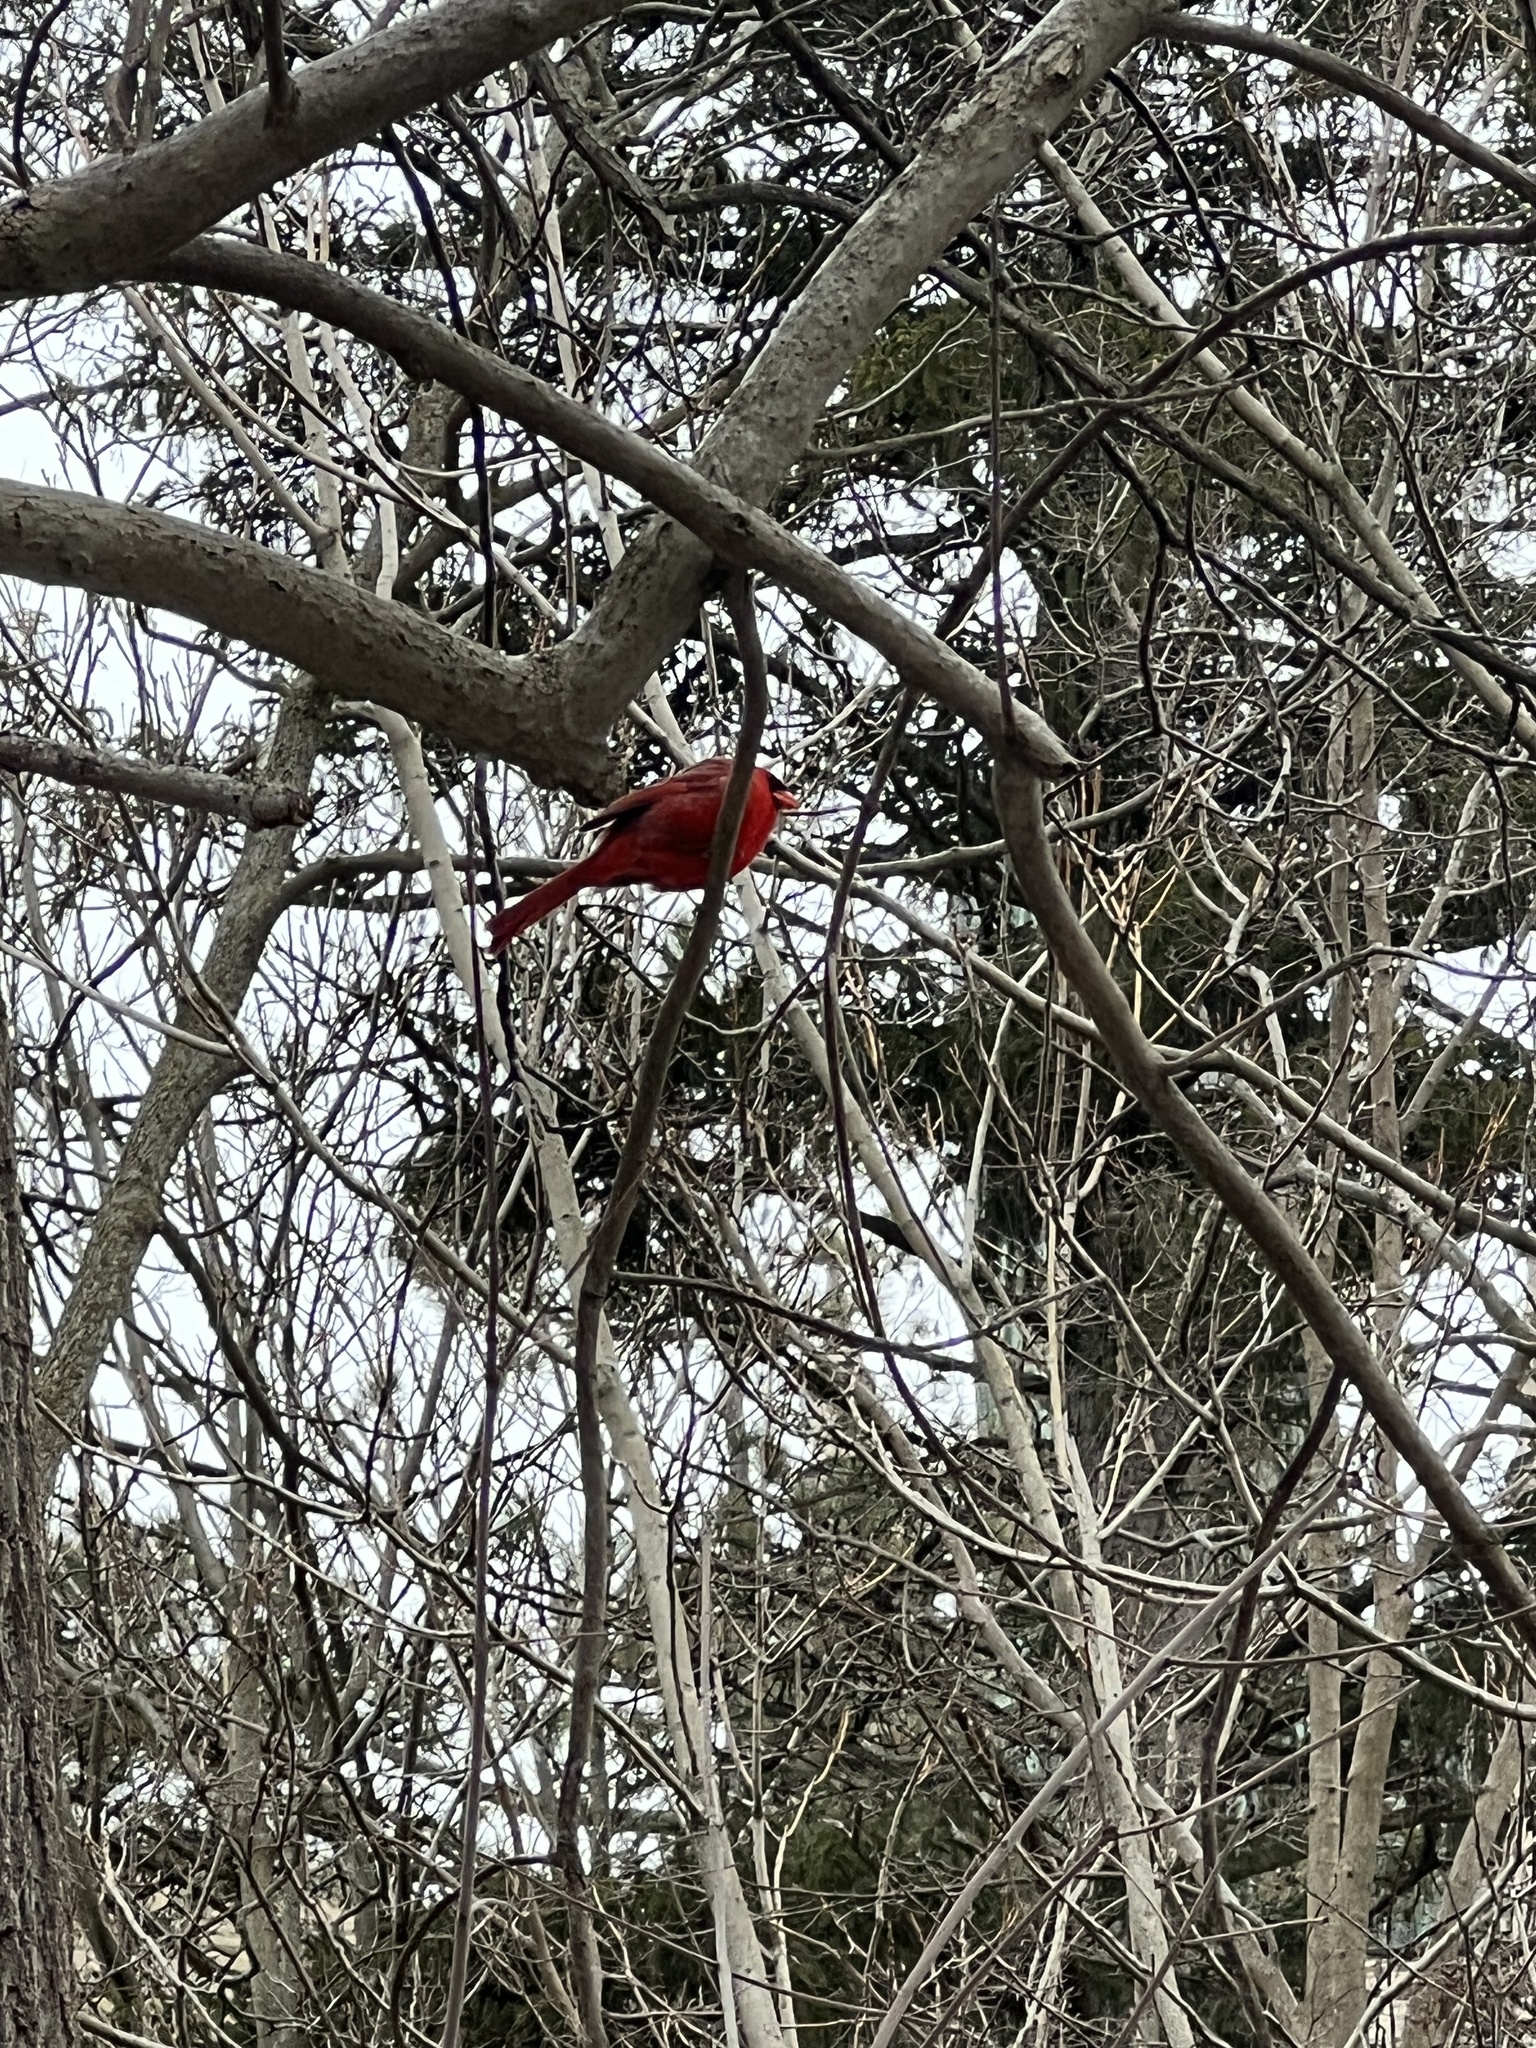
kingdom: Animalia
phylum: Chordata
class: Aves
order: Passeriformes
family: Cardinalidae
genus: Cardinalis
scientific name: Cardinalis cardinalis
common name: Northern cardinal
